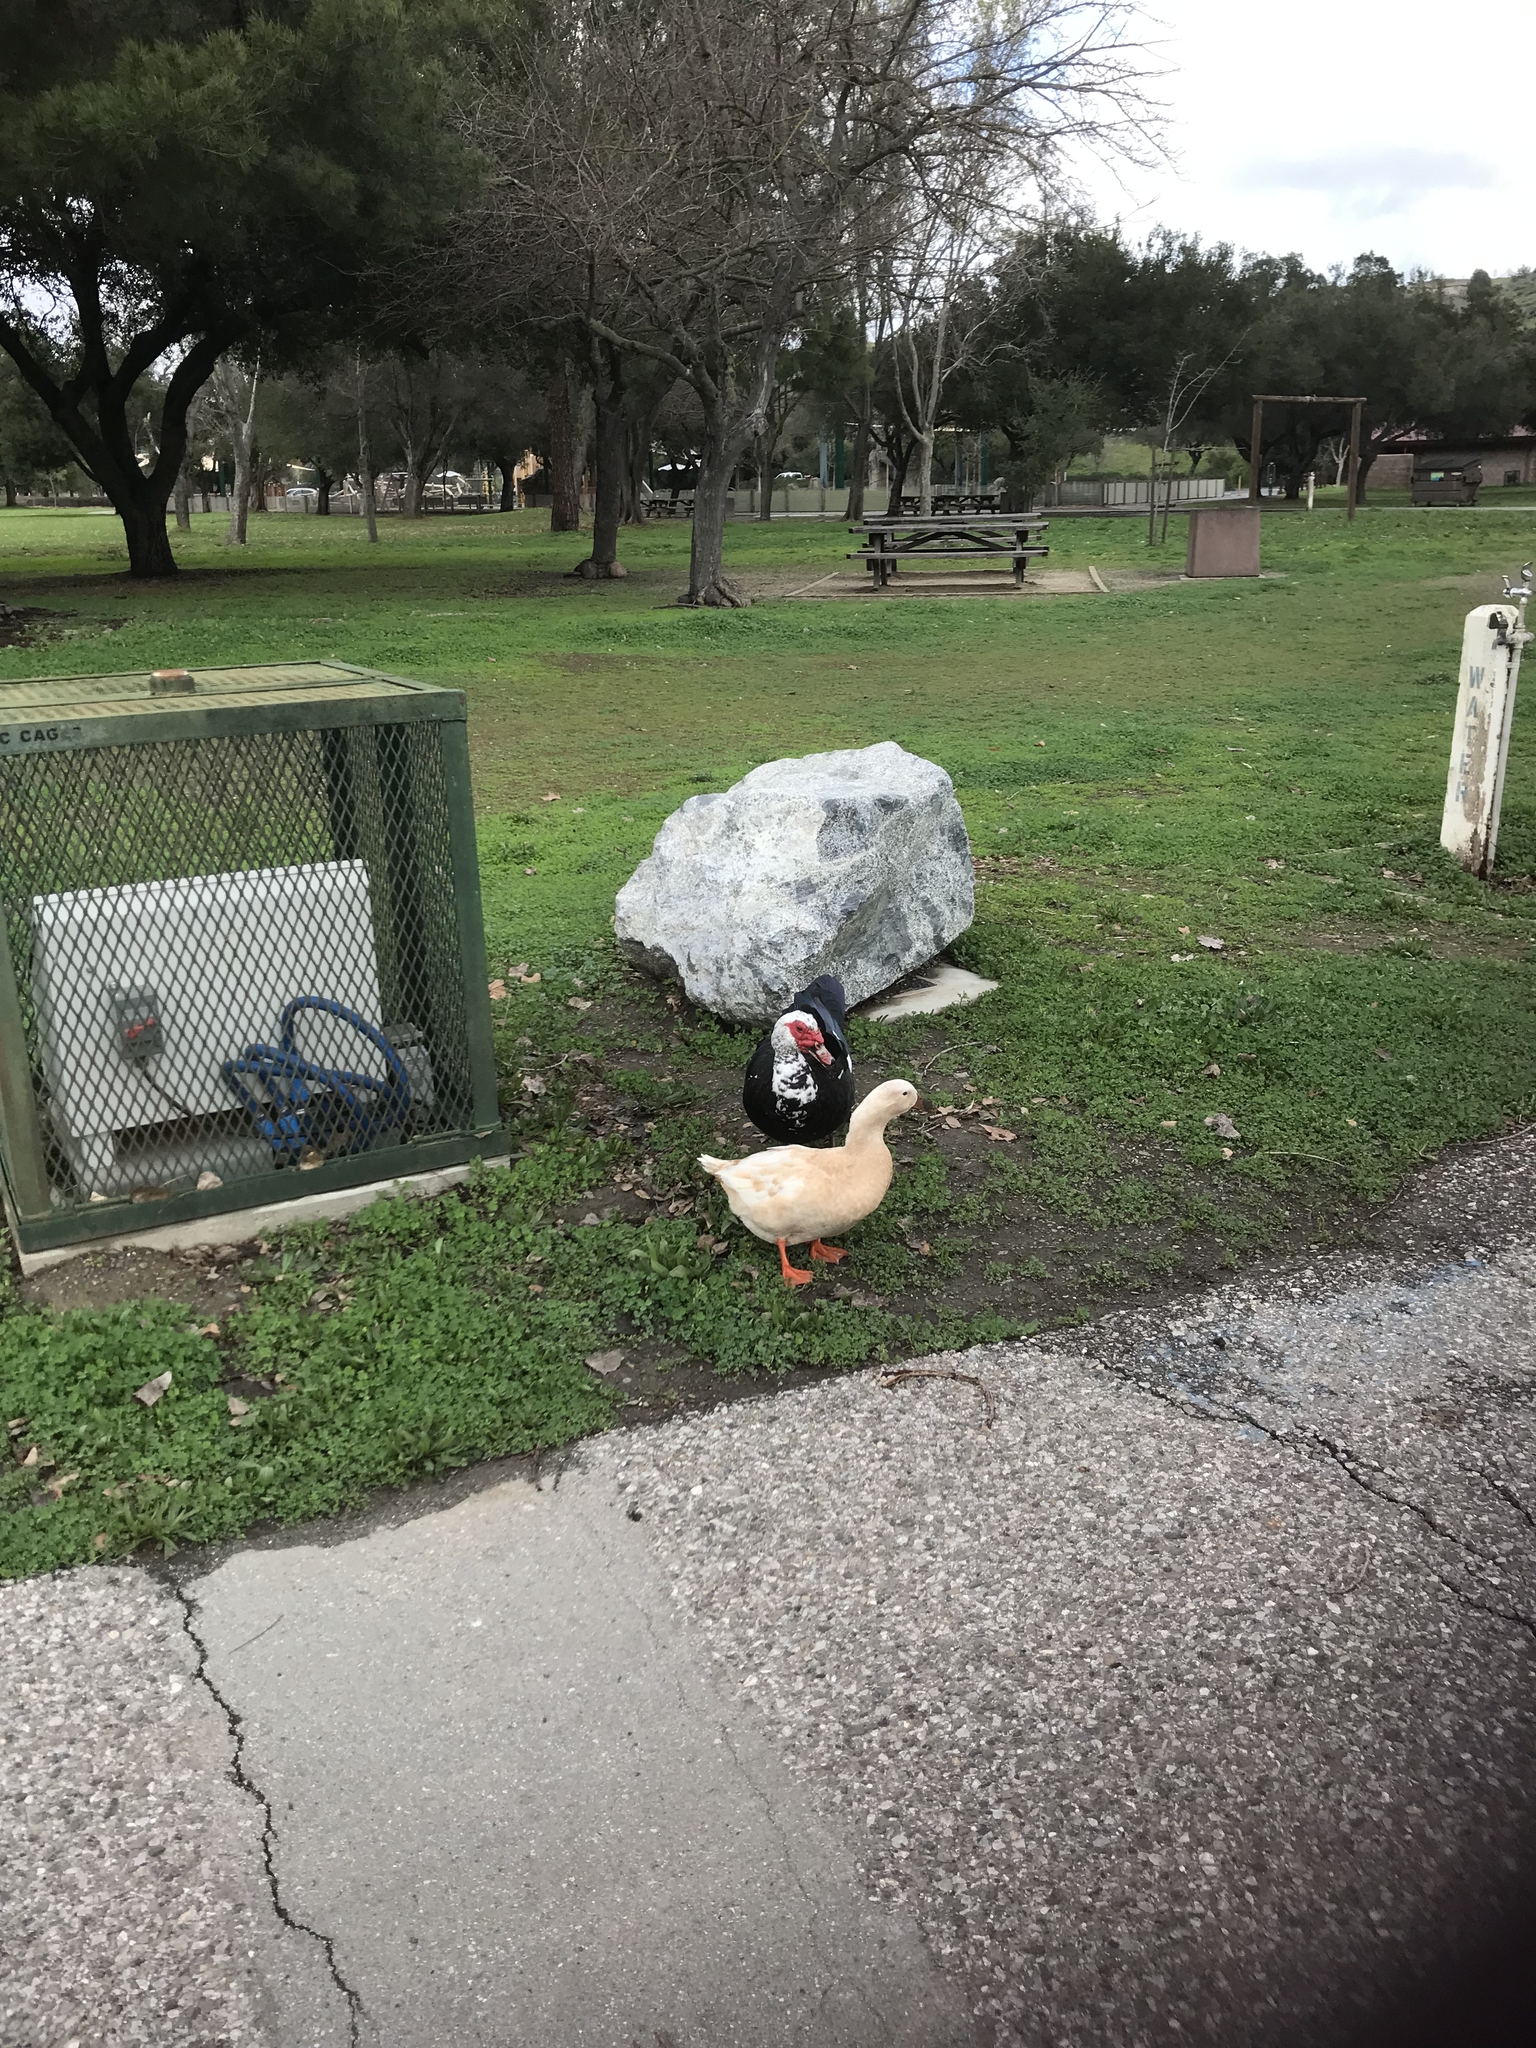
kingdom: Animalia
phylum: Chordata
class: Aves
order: Anseriformes
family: Anatidae
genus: Cairina
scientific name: Cairina moschata
